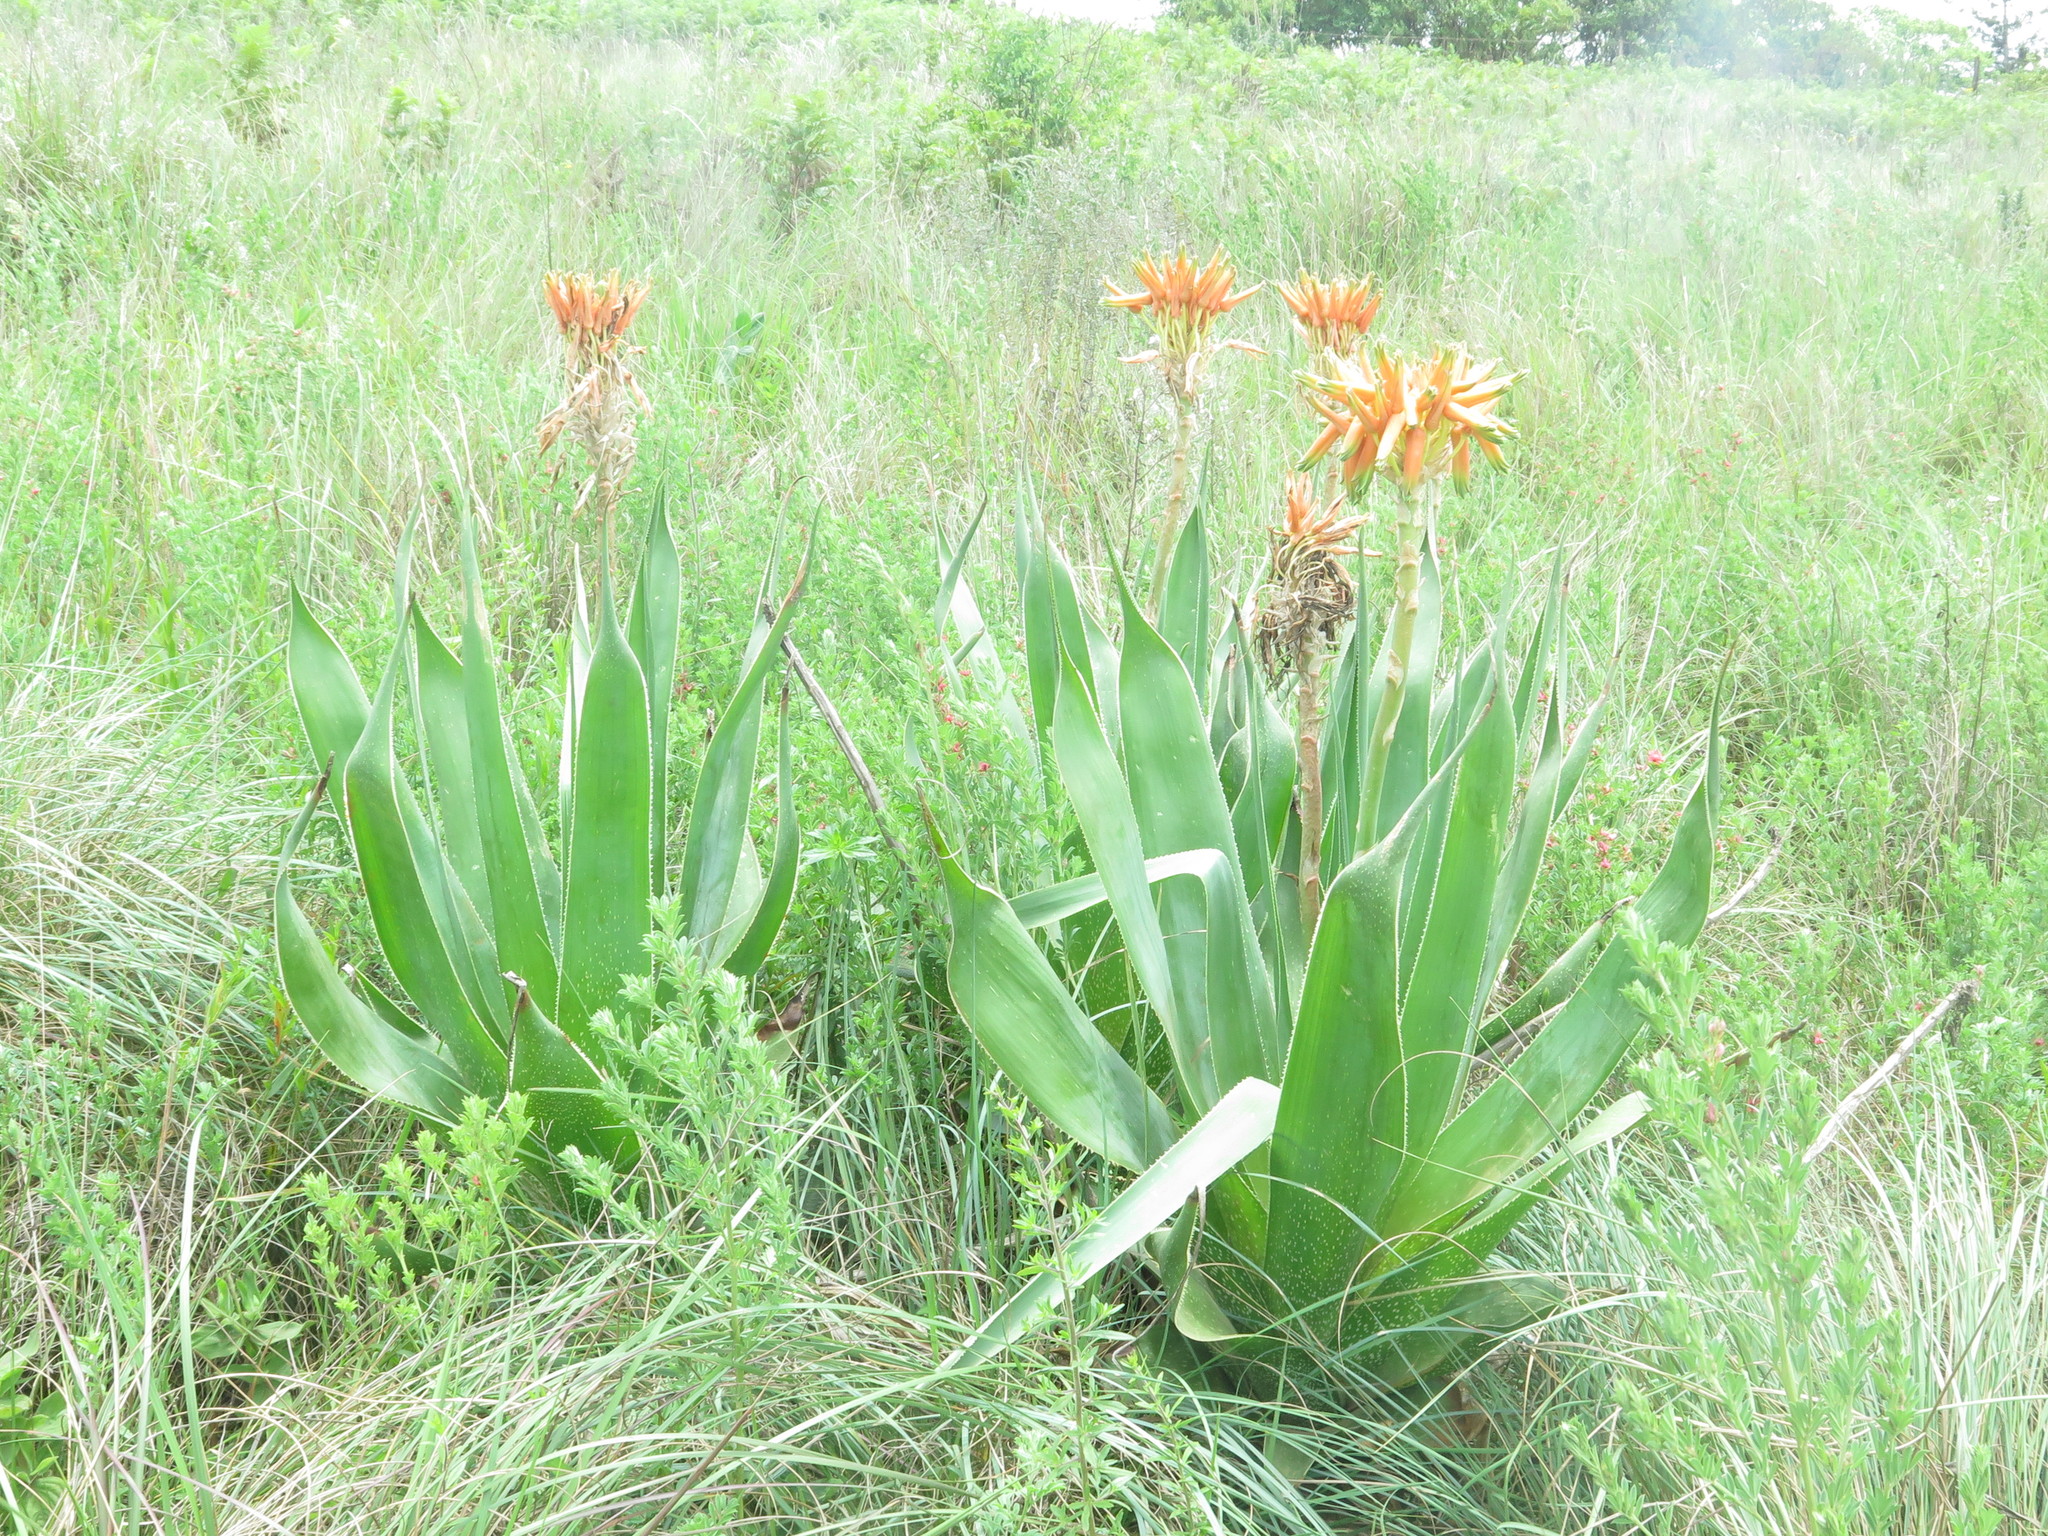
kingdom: Plantae
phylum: Tracheophyta
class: Liliopsida
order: Asparagales
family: Asphodelaceae
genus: Aloe
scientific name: Aloe ecklonis
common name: Ecklon's aloe
